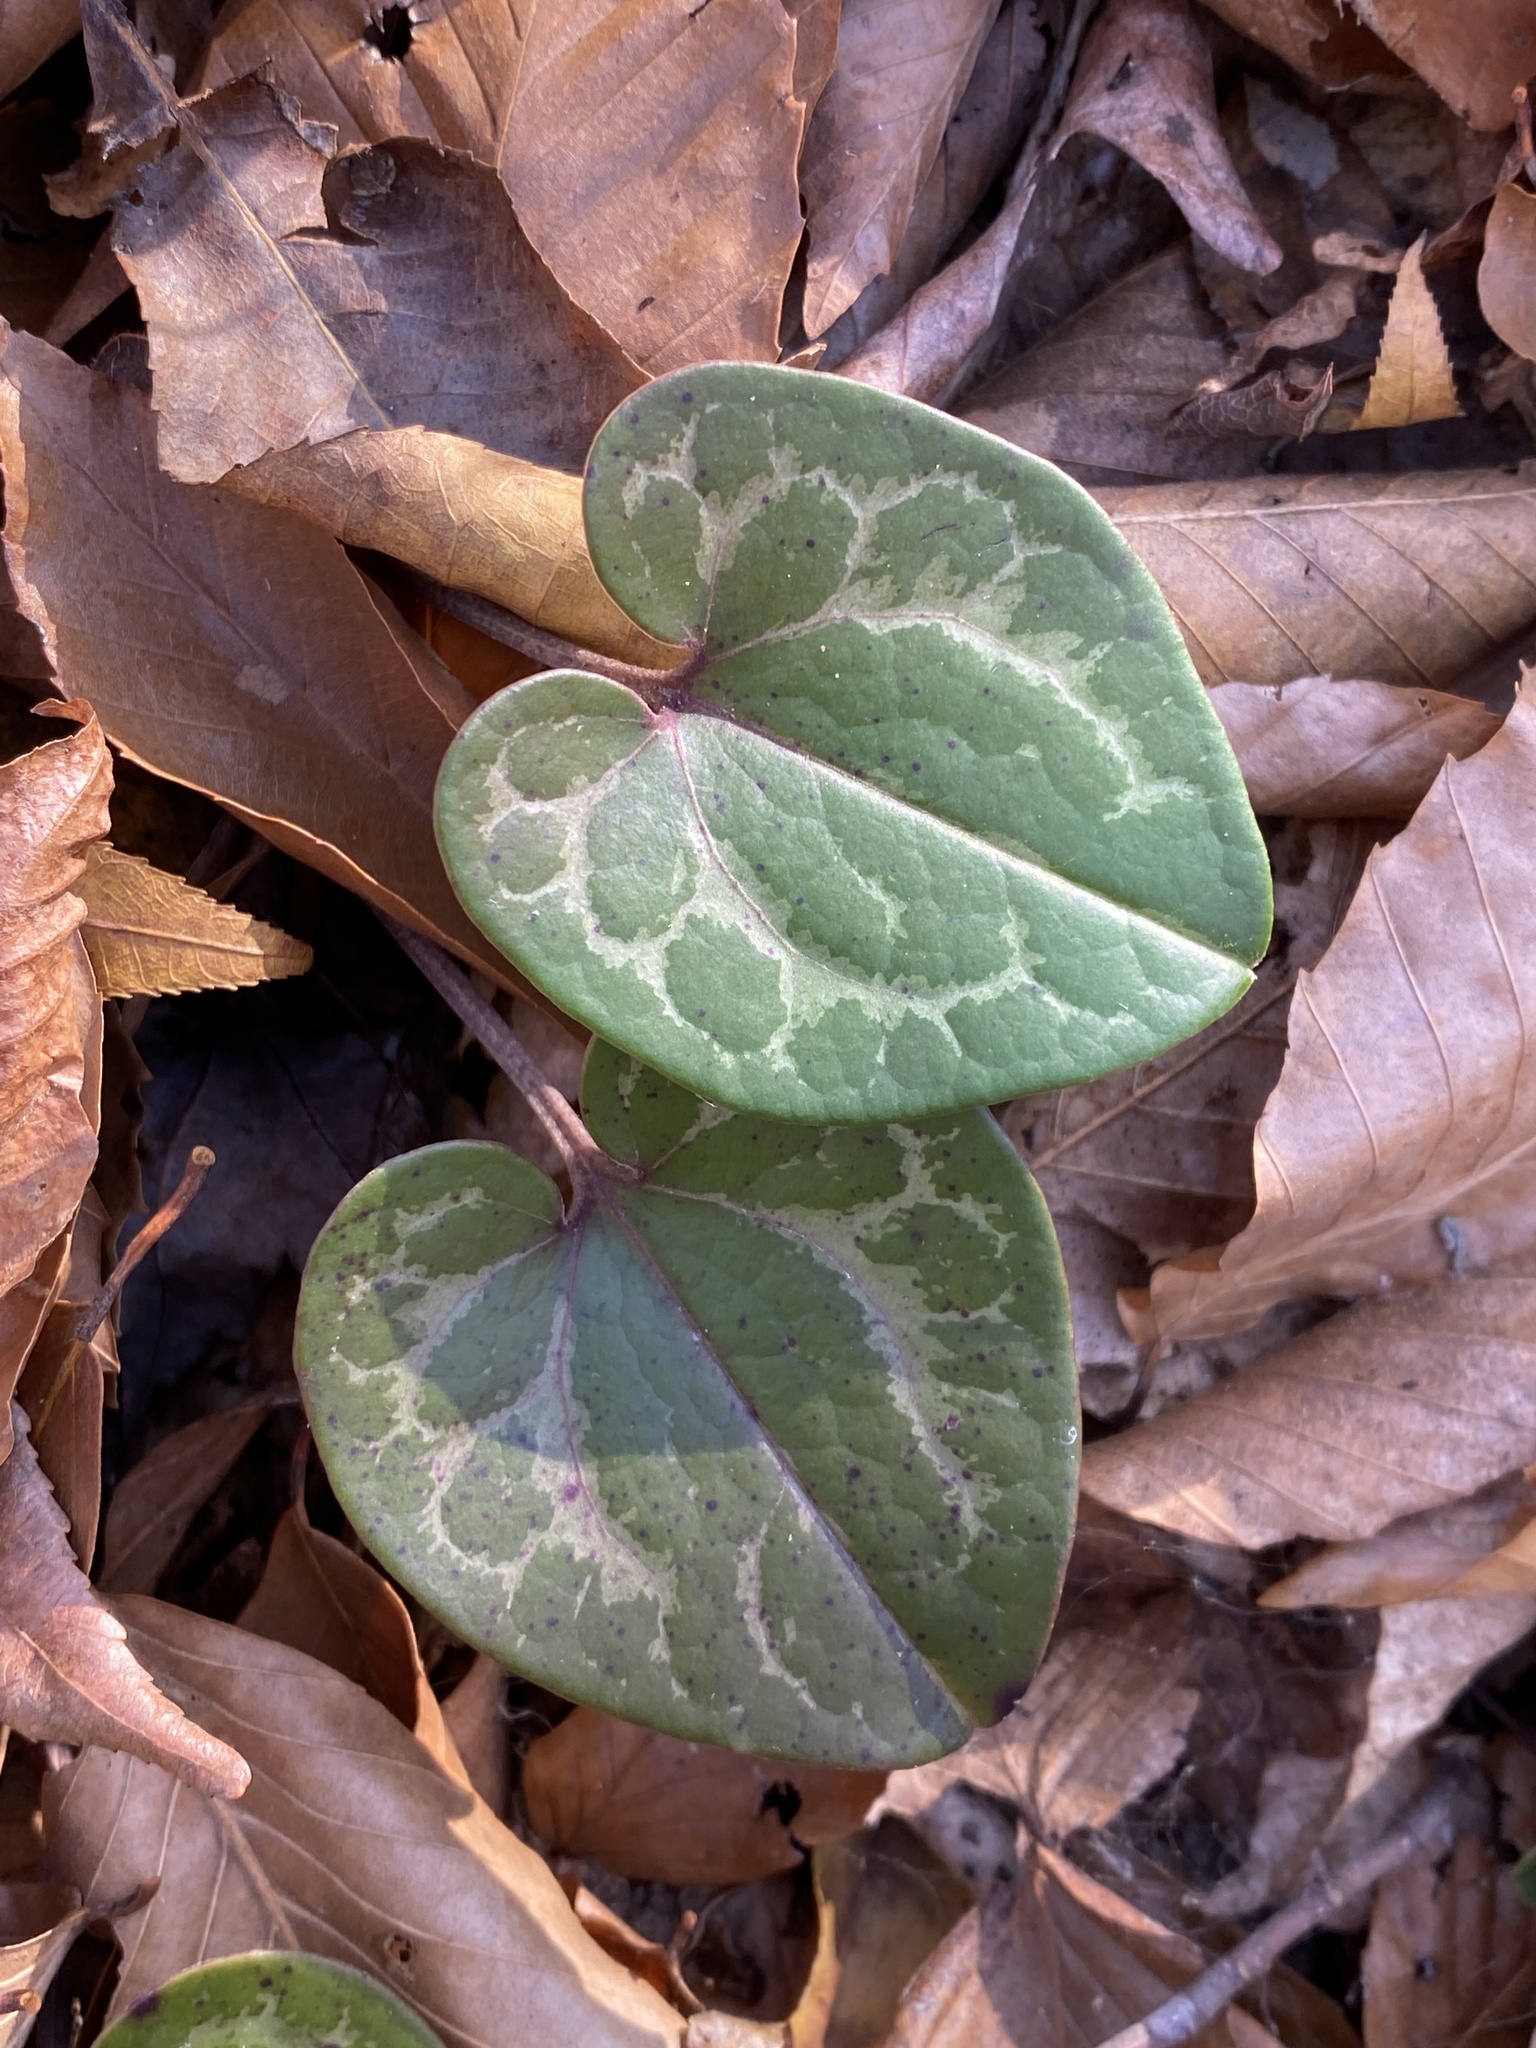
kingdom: Plantae
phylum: Tracheophyta
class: Magnoliopsida
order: Piperales
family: Aristolochiaceae
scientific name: Aristolochiaceae
